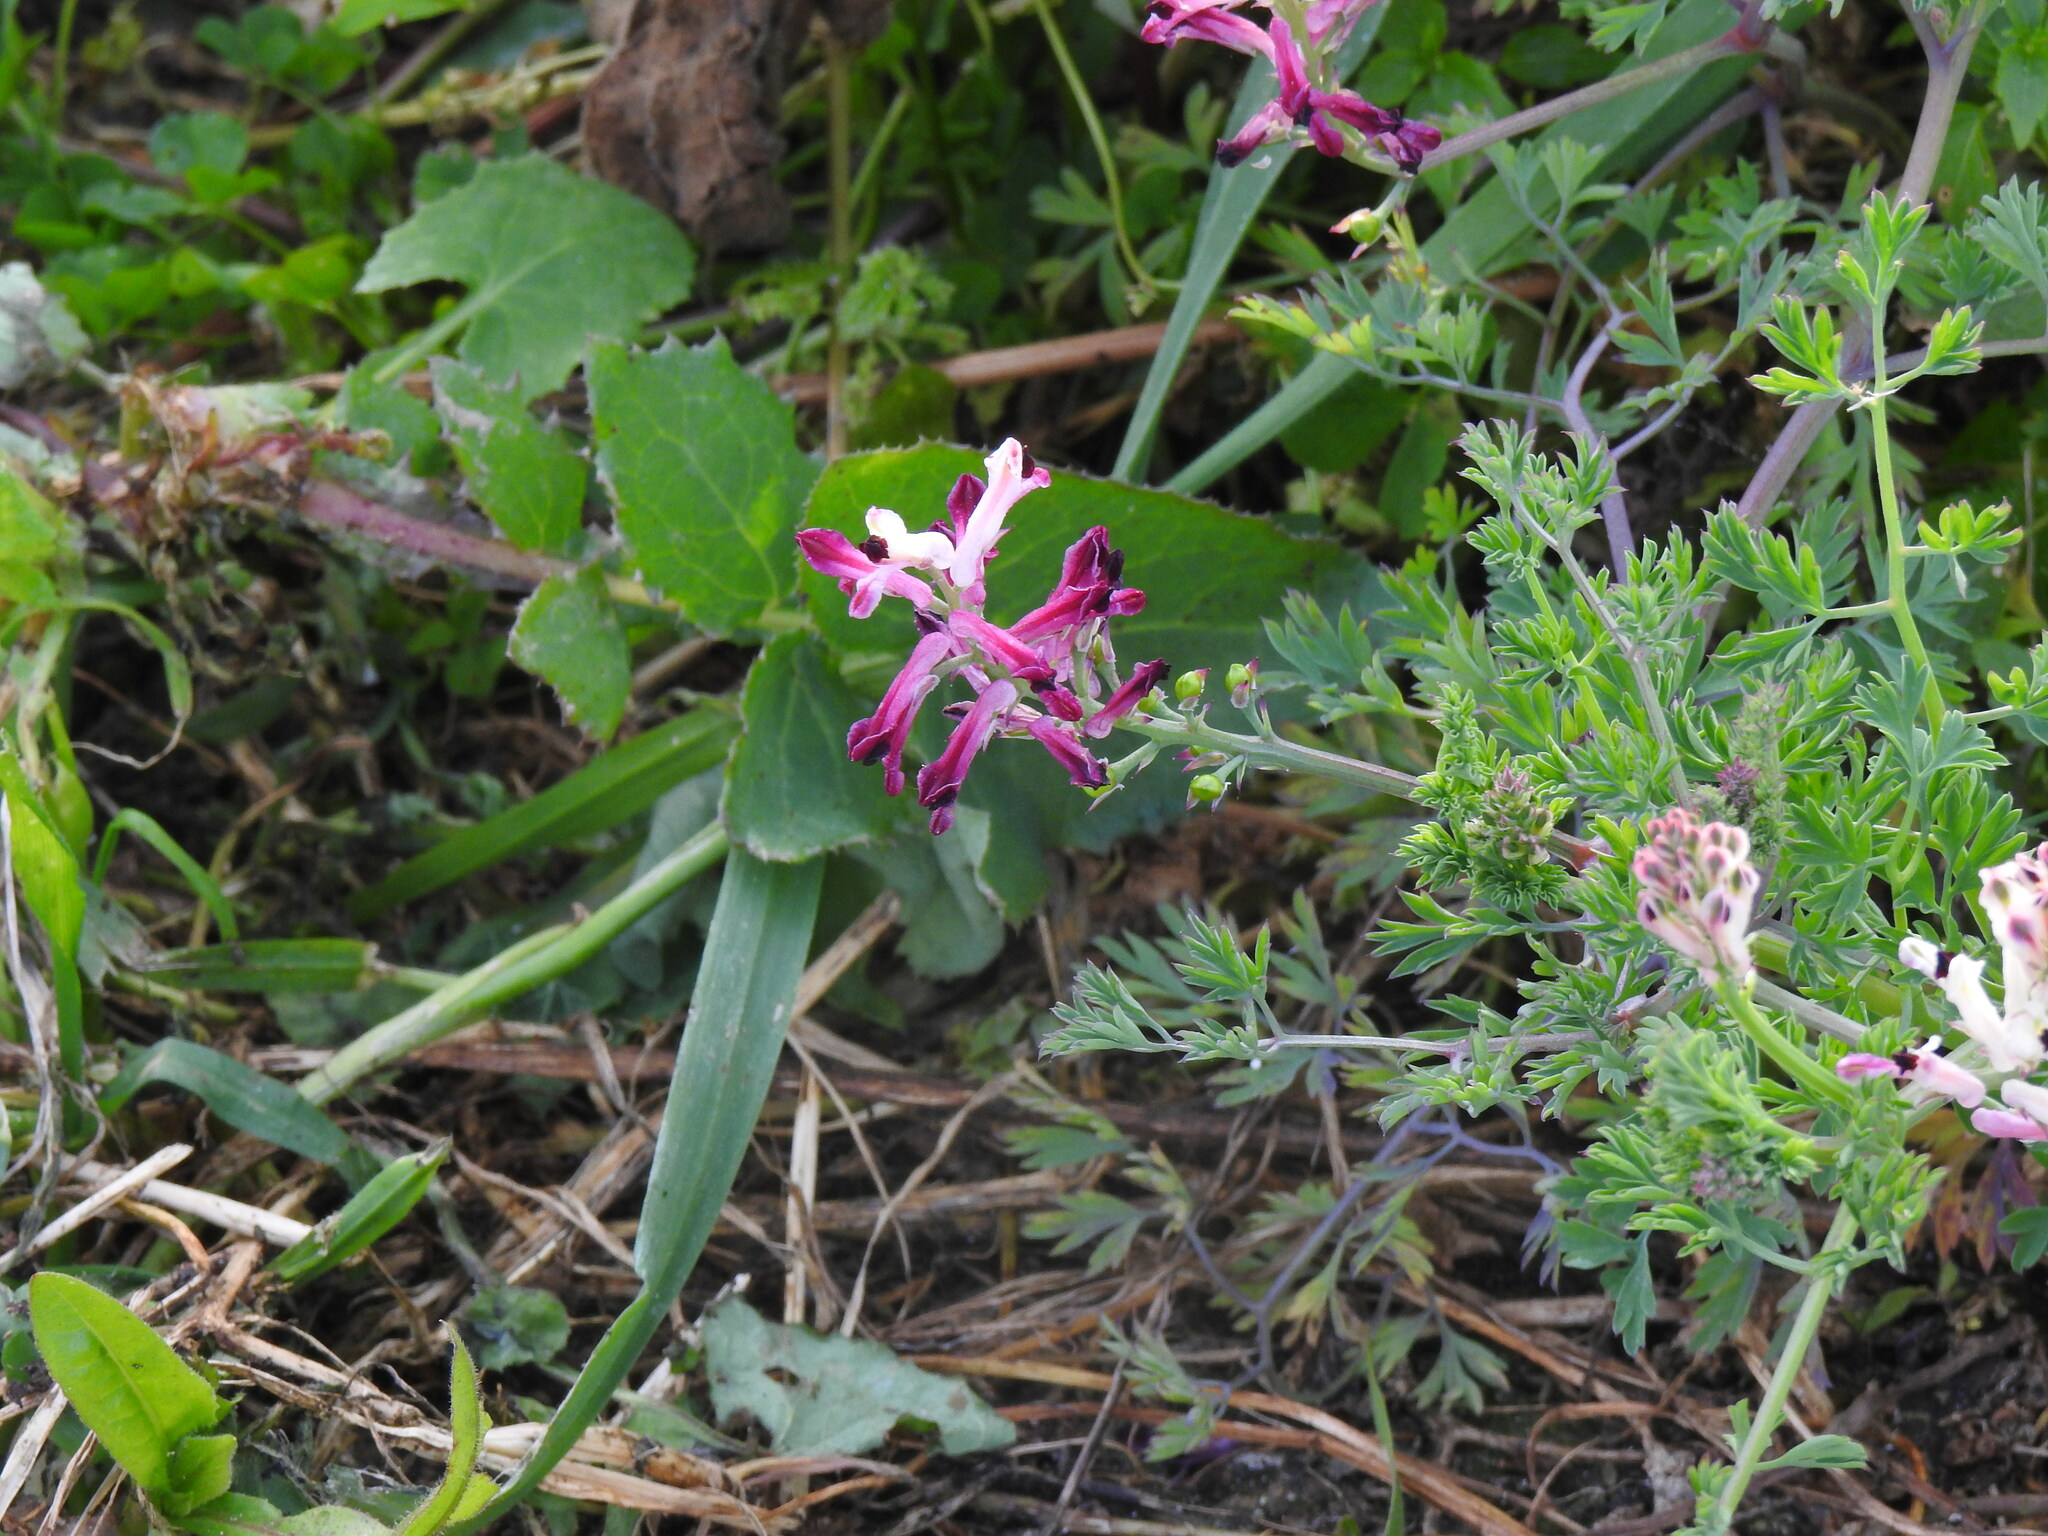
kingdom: Plantae
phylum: Tracheophyta
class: Magnoliopsida
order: Ranunculales
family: Papaveraceae
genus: Fumaria
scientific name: Fumaria agraria
